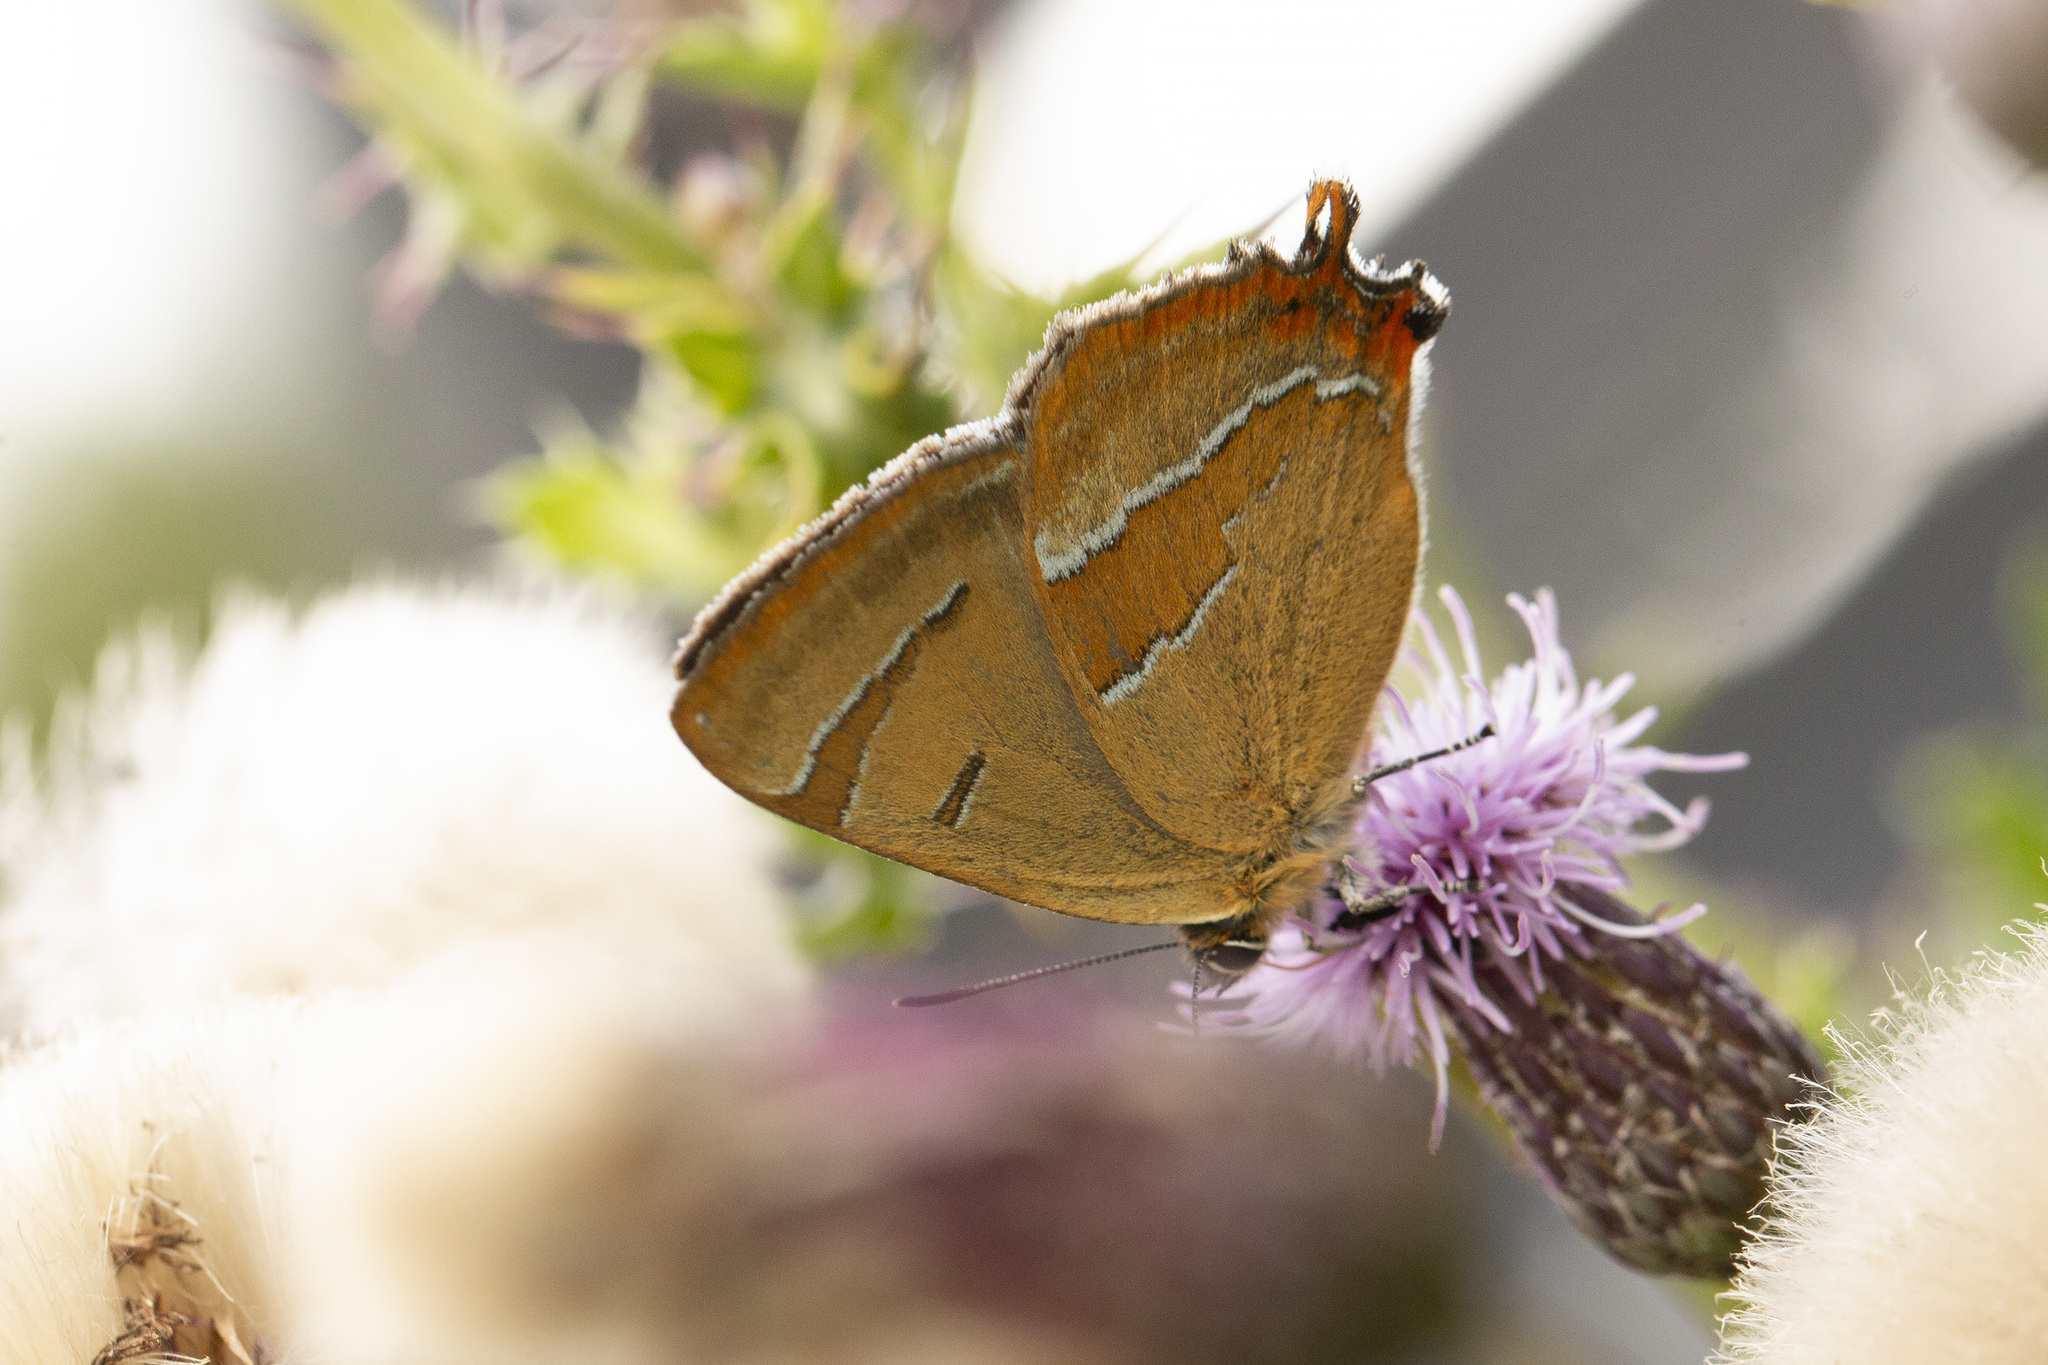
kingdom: Animalia
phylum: Arthropoda
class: Insecta
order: Lepidoptera
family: Lycaenidae
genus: Thecla
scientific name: Thecla betulae
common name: Brown hairstreak
